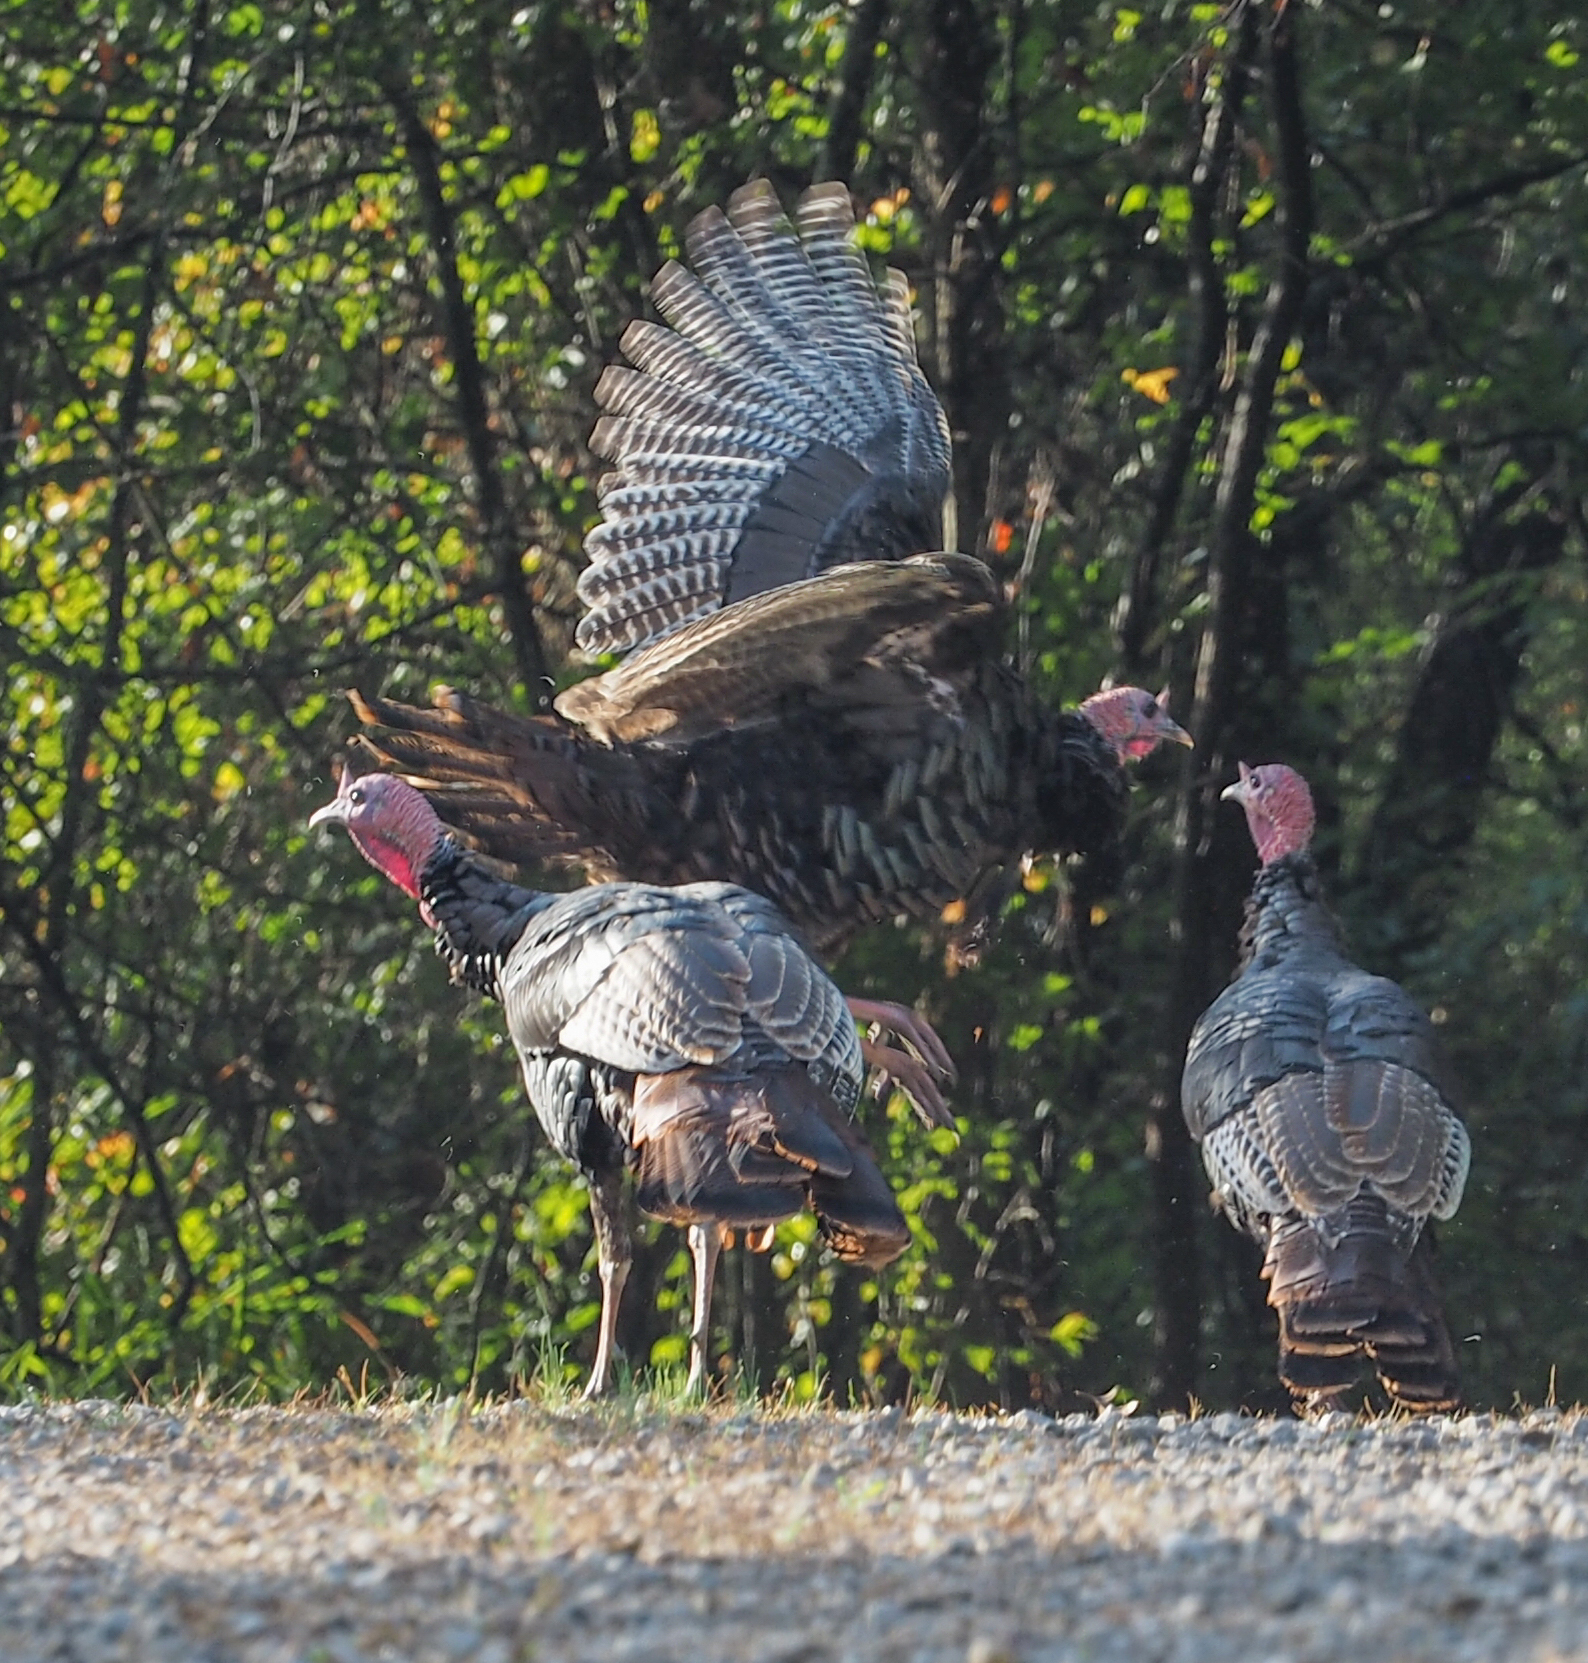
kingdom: Animalia
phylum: Chordata
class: Aves
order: Galliformes
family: Phasianidae
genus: Meleagris
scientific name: Meleagris gallopavo
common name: Wild turkey
